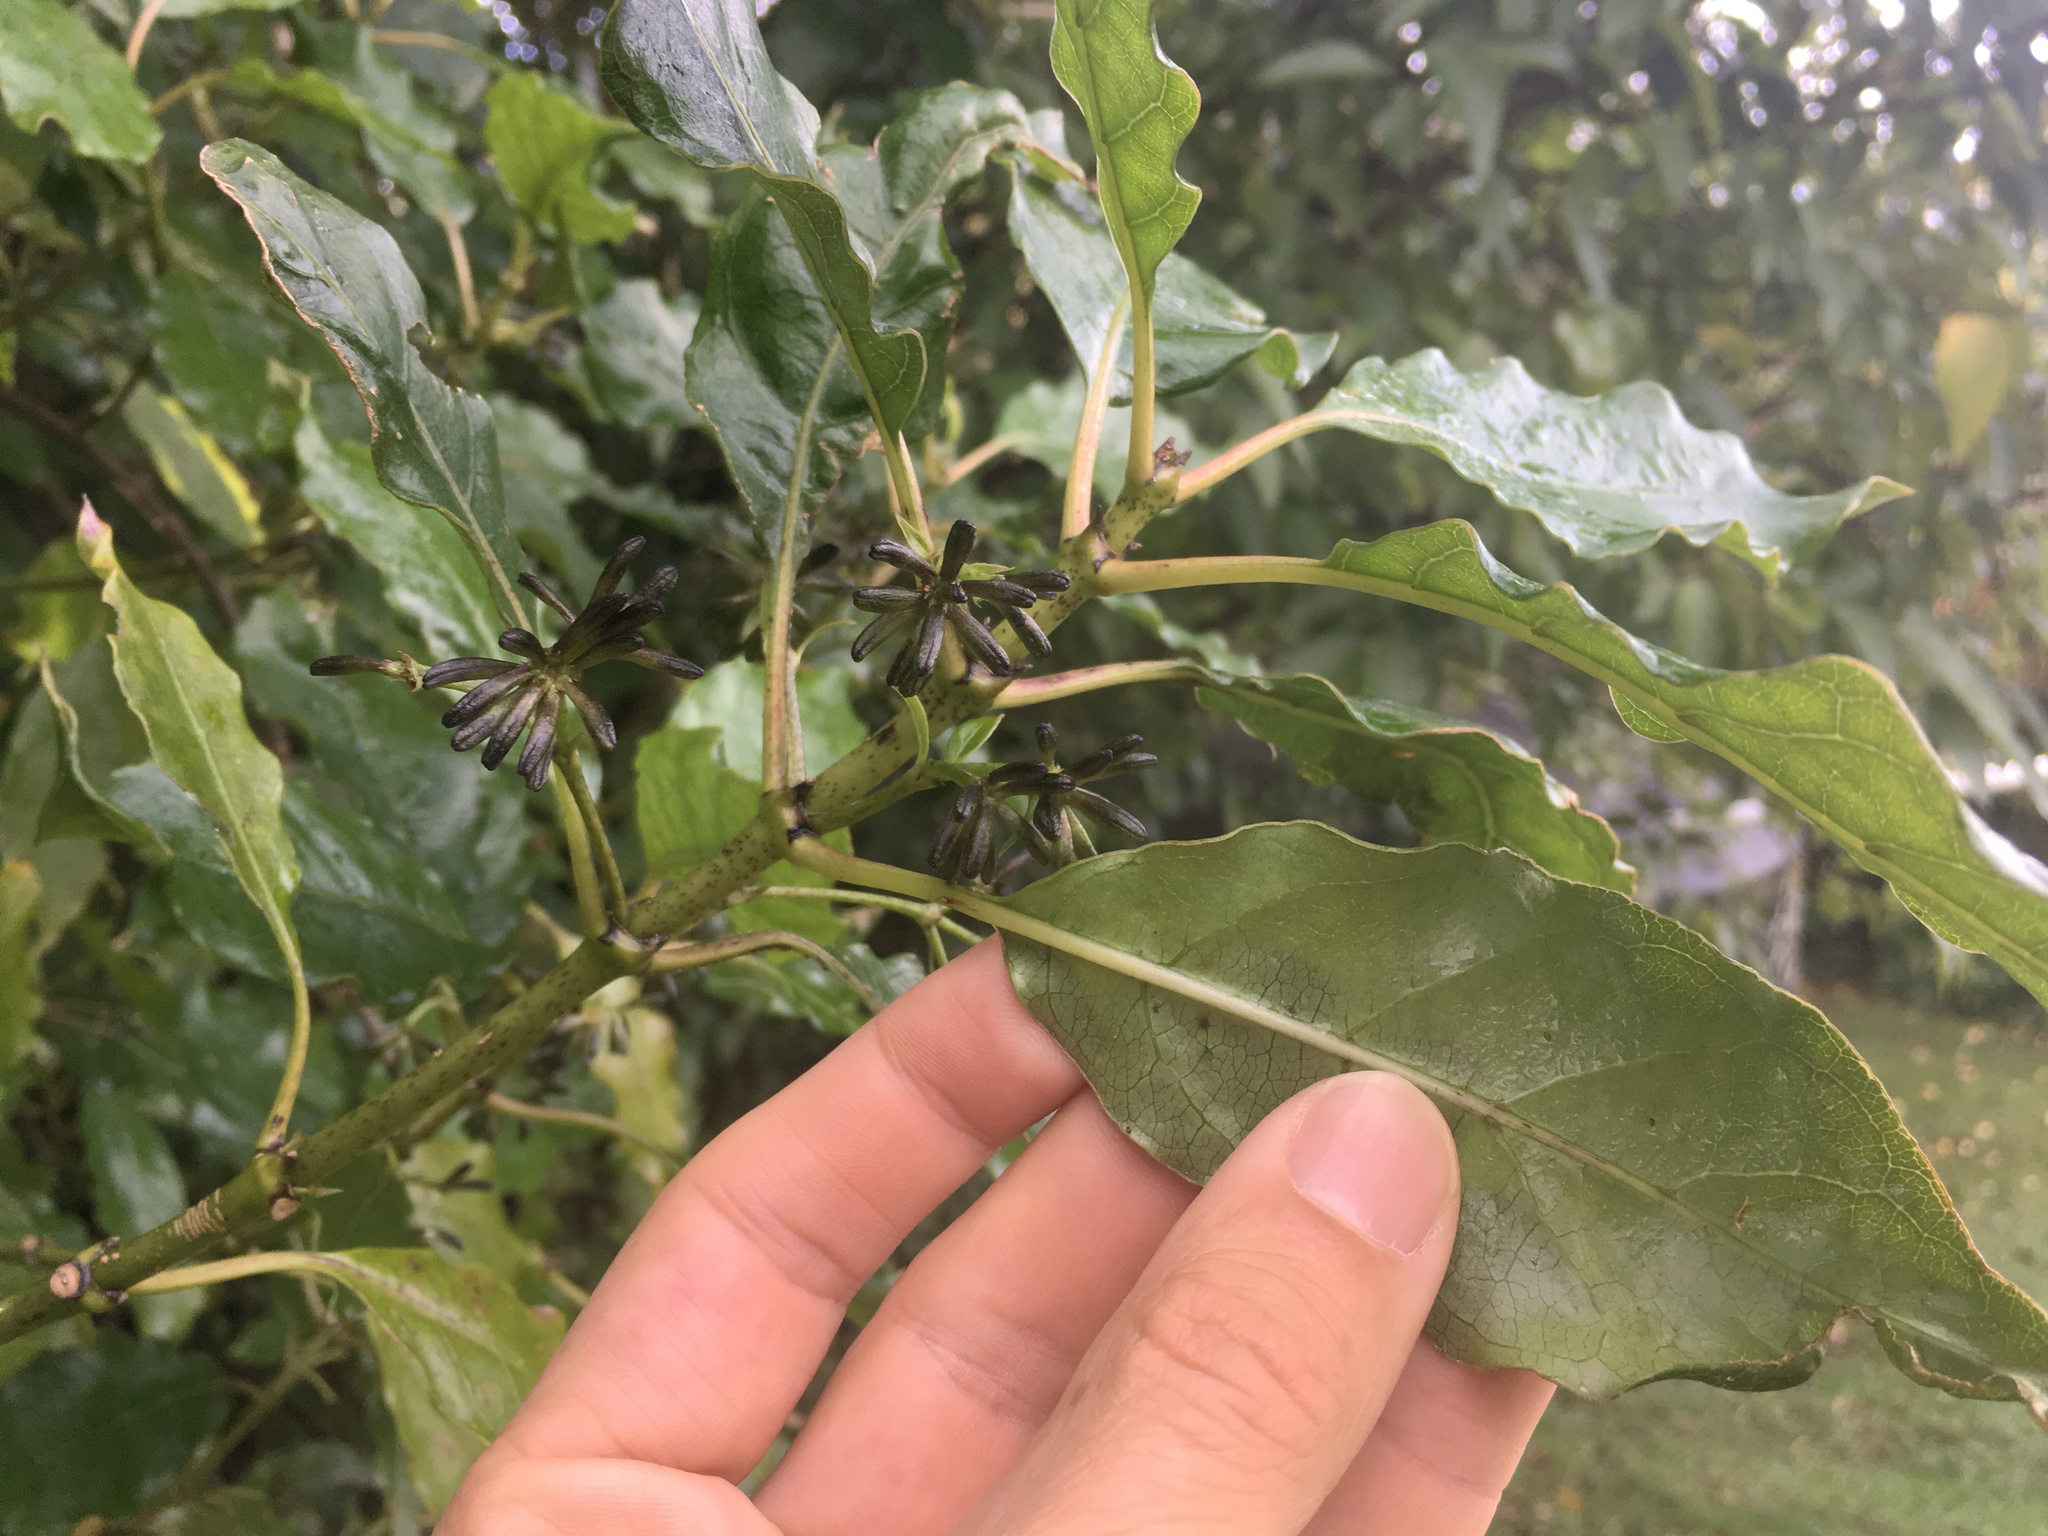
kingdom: Plantae
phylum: Tracheophyta
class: Magnoliopsida
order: Gentianales
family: Rubiaceae
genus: Coprosma
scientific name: Coprosma autumnalis
